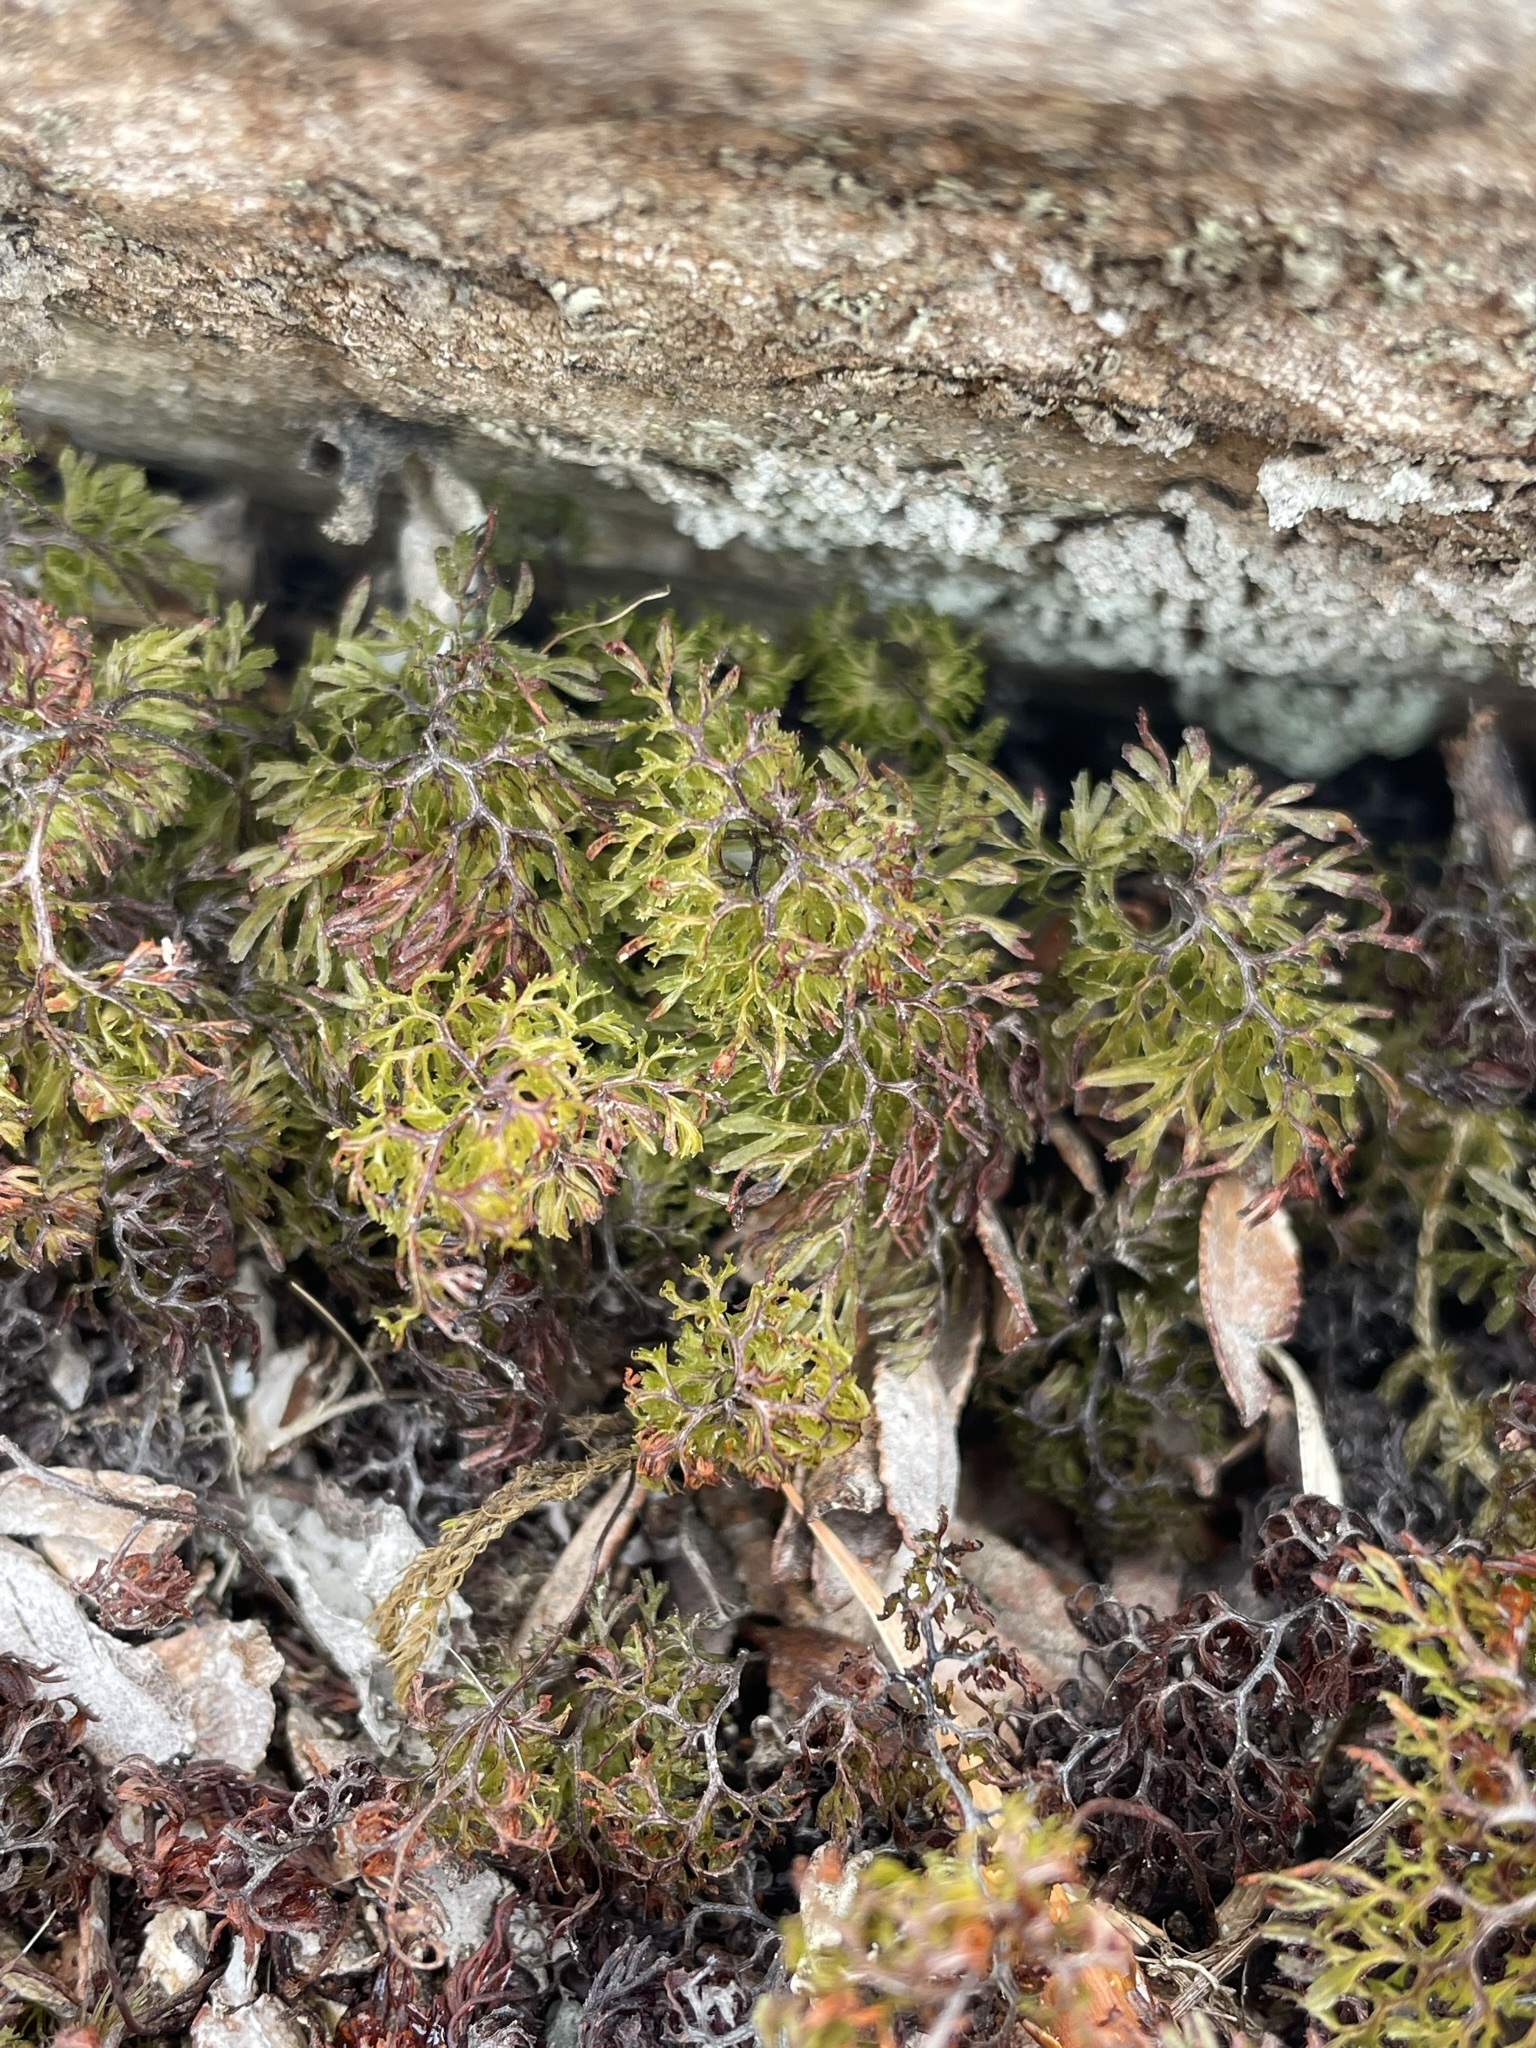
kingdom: Plantae
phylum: Tracheophyta
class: Polypodiopsida
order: Hymenophyllales
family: Hymenophyllaceae
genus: Hymenophyllum
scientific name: Hymenophyllum multifidum
